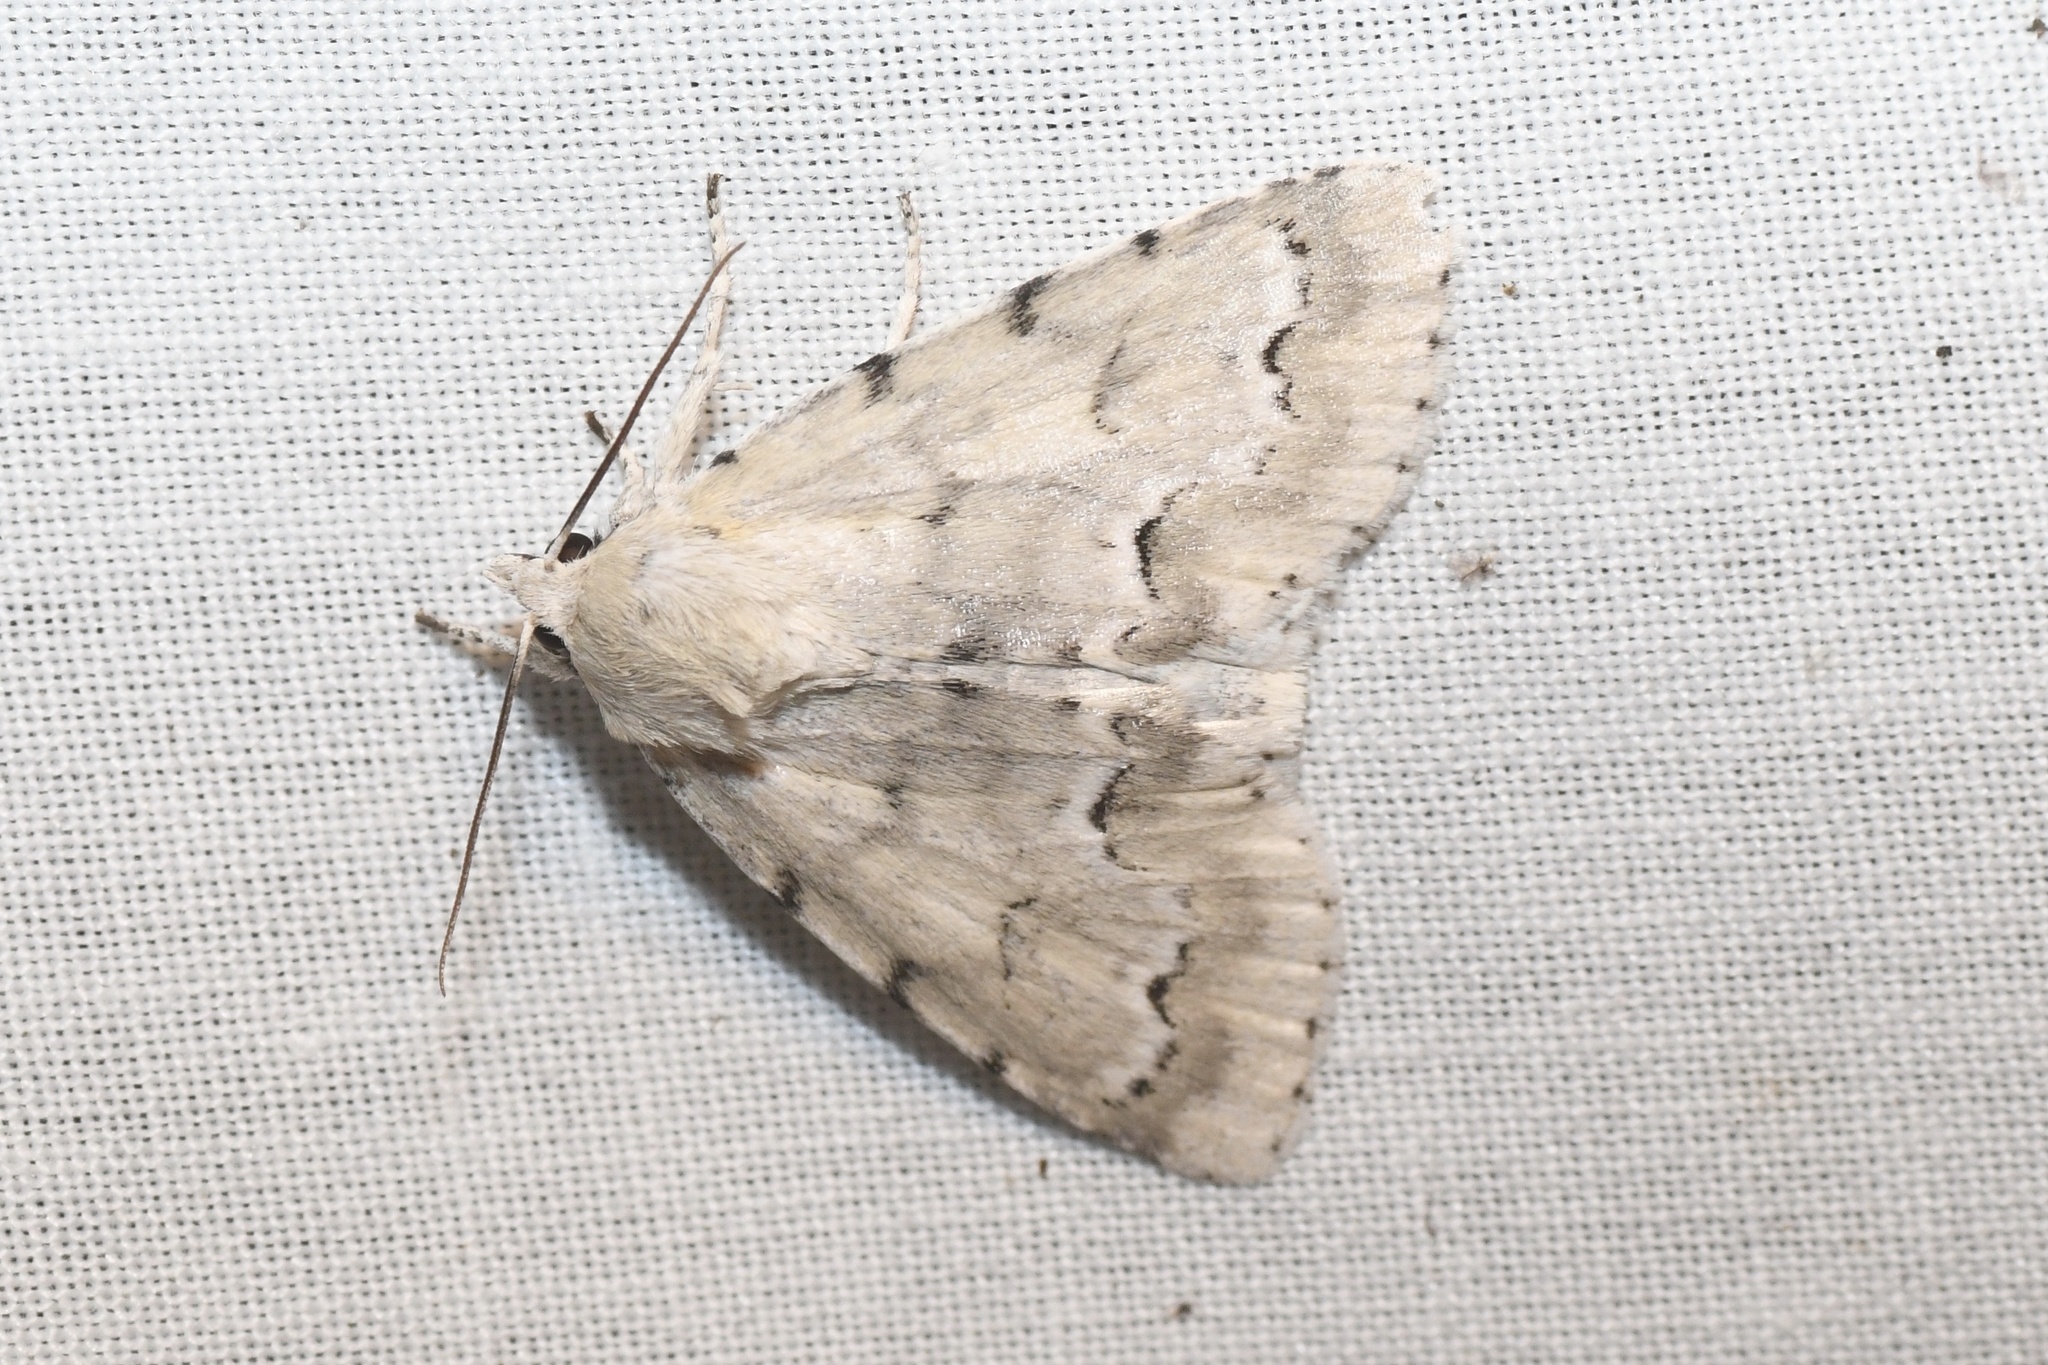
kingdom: Animalia
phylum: Arthropoda
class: Insecta
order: Lepidoptera
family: Noctuidae
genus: Acronicta
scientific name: Acronicta innotata
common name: Unmarked dagger
